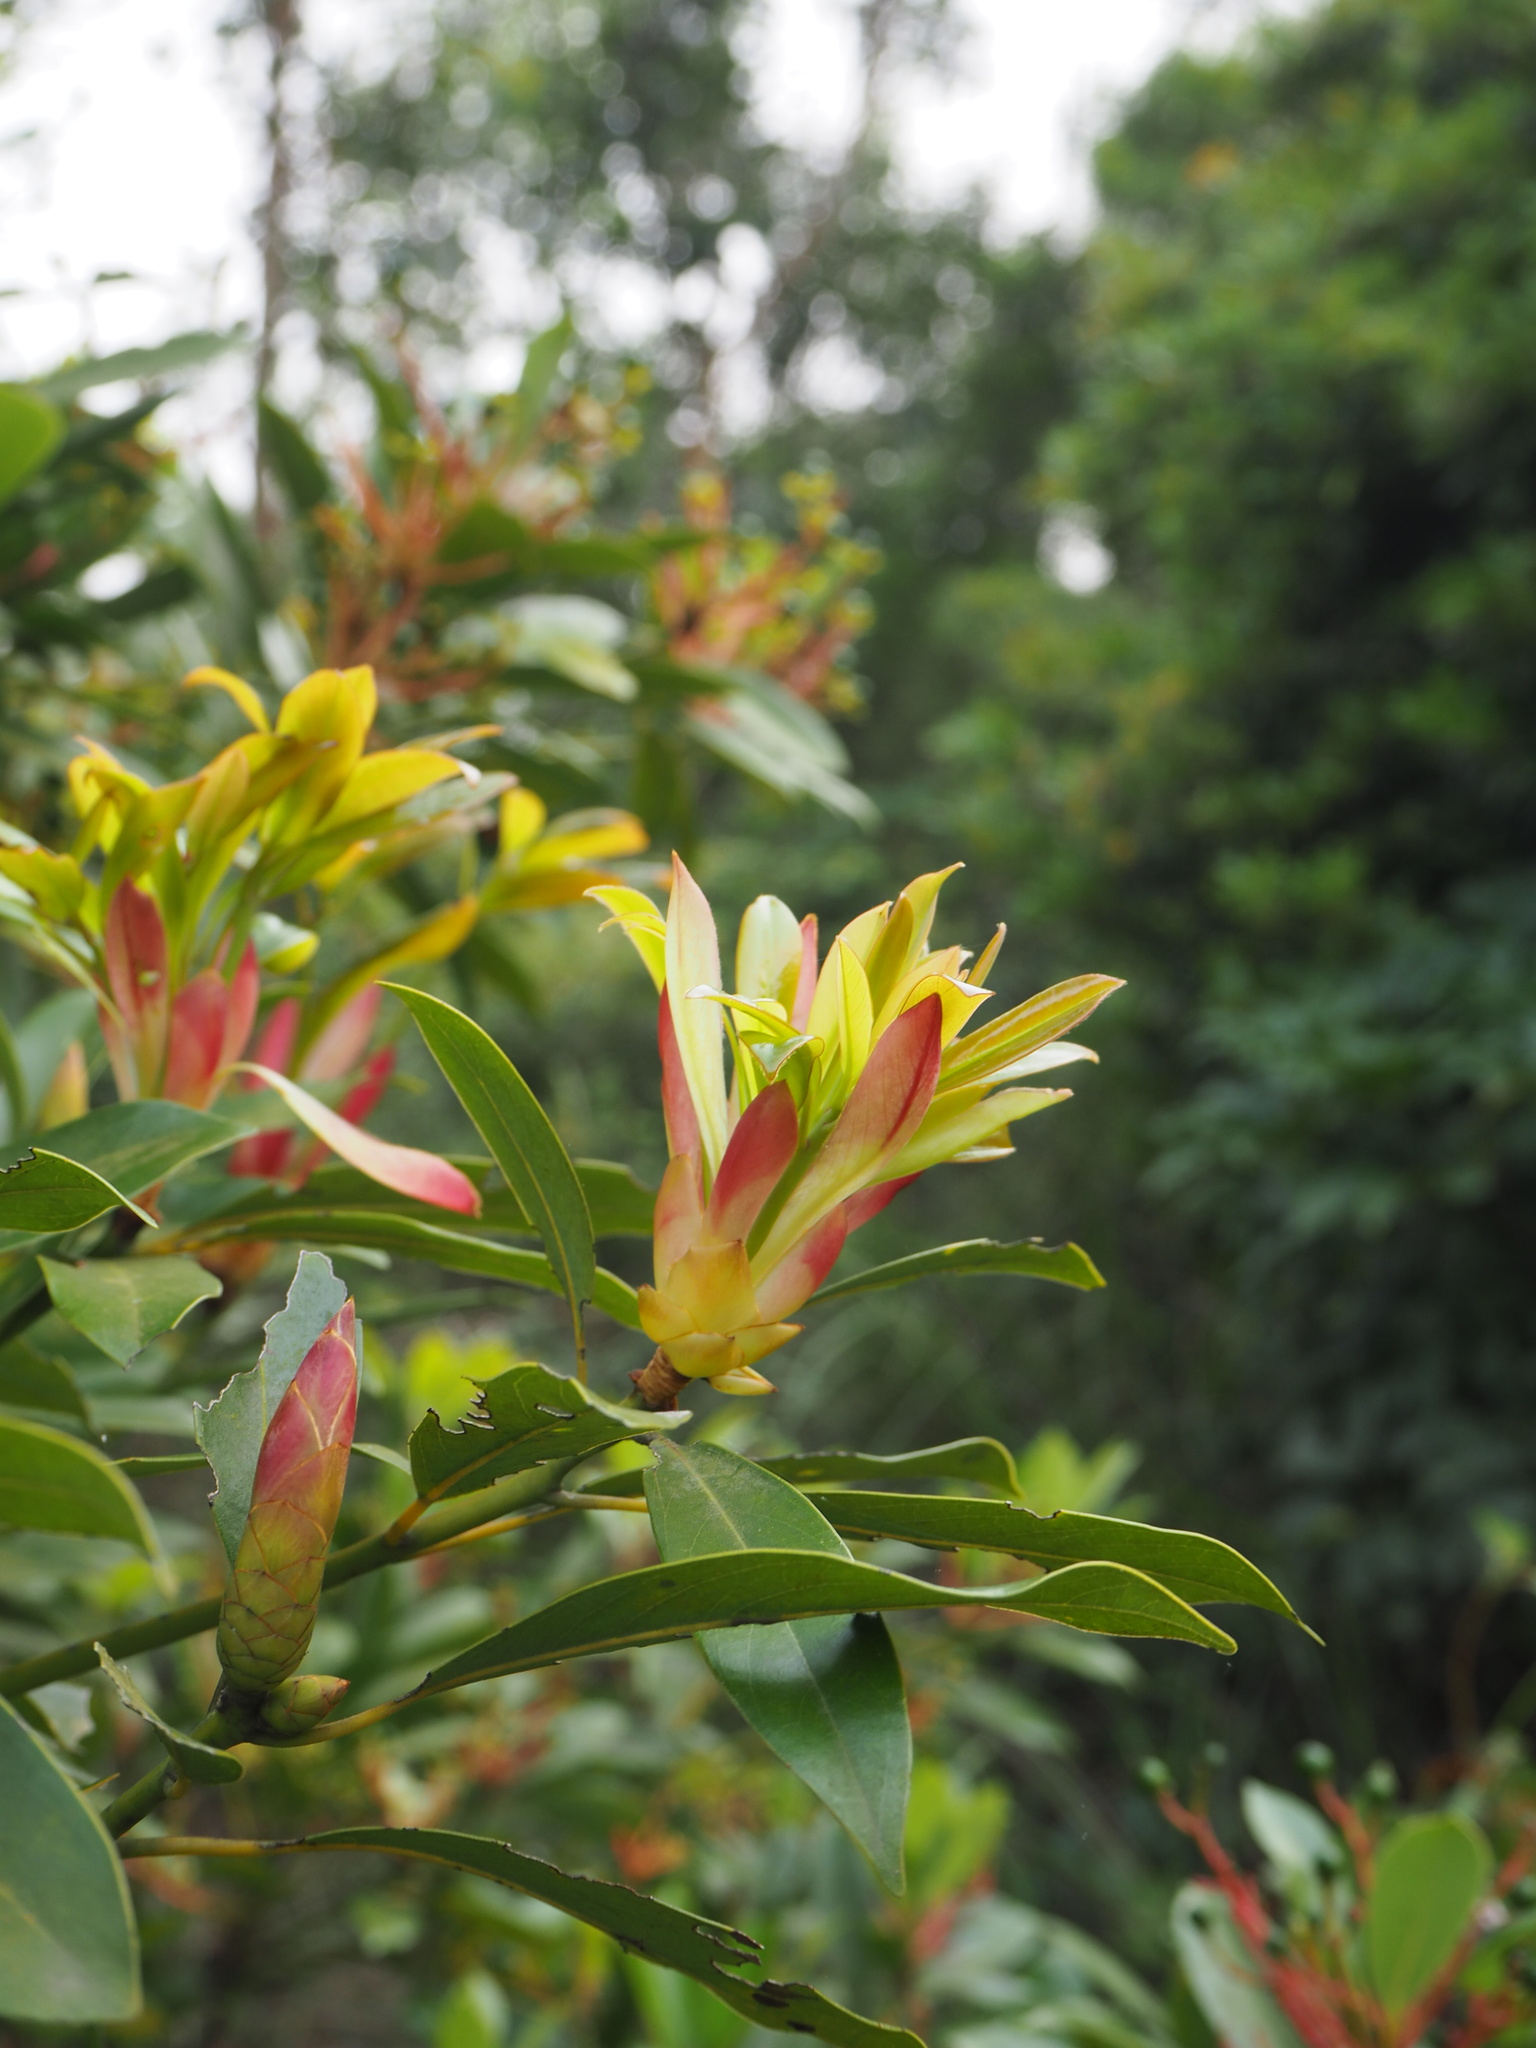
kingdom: Plantae
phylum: Tracheophyta
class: Magnoliopsida
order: Laurales
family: Lauraceae
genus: Machilus
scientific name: Machilus thunbergii
